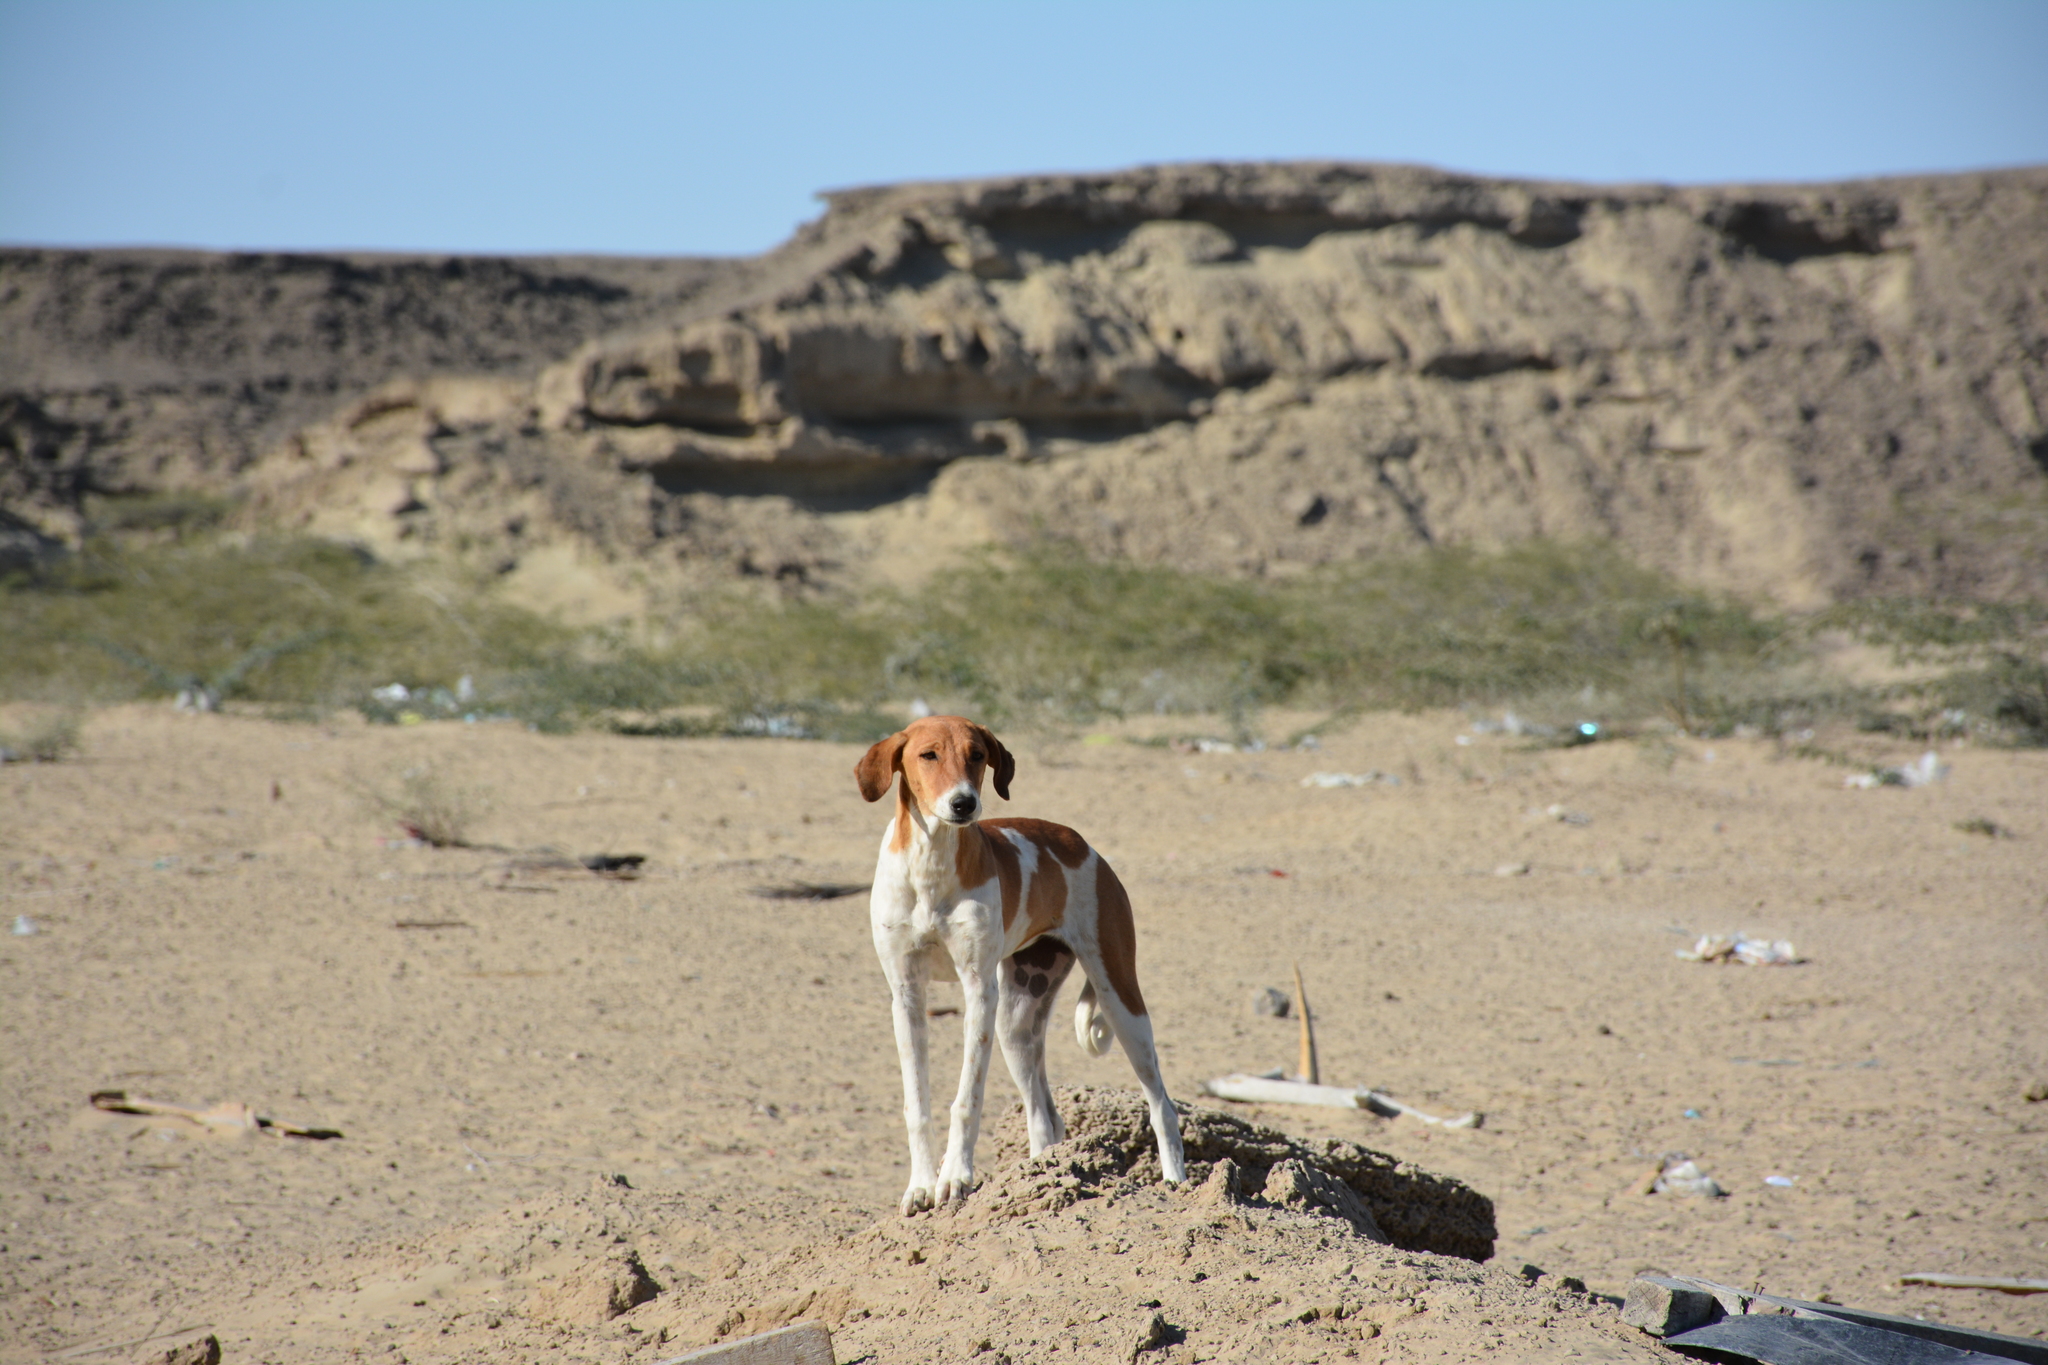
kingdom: Animalia
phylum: Chordata
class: Mammalia
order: Carnivora
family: Canidae
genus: Canis
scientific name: Canis lupus
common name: Gray wolf
